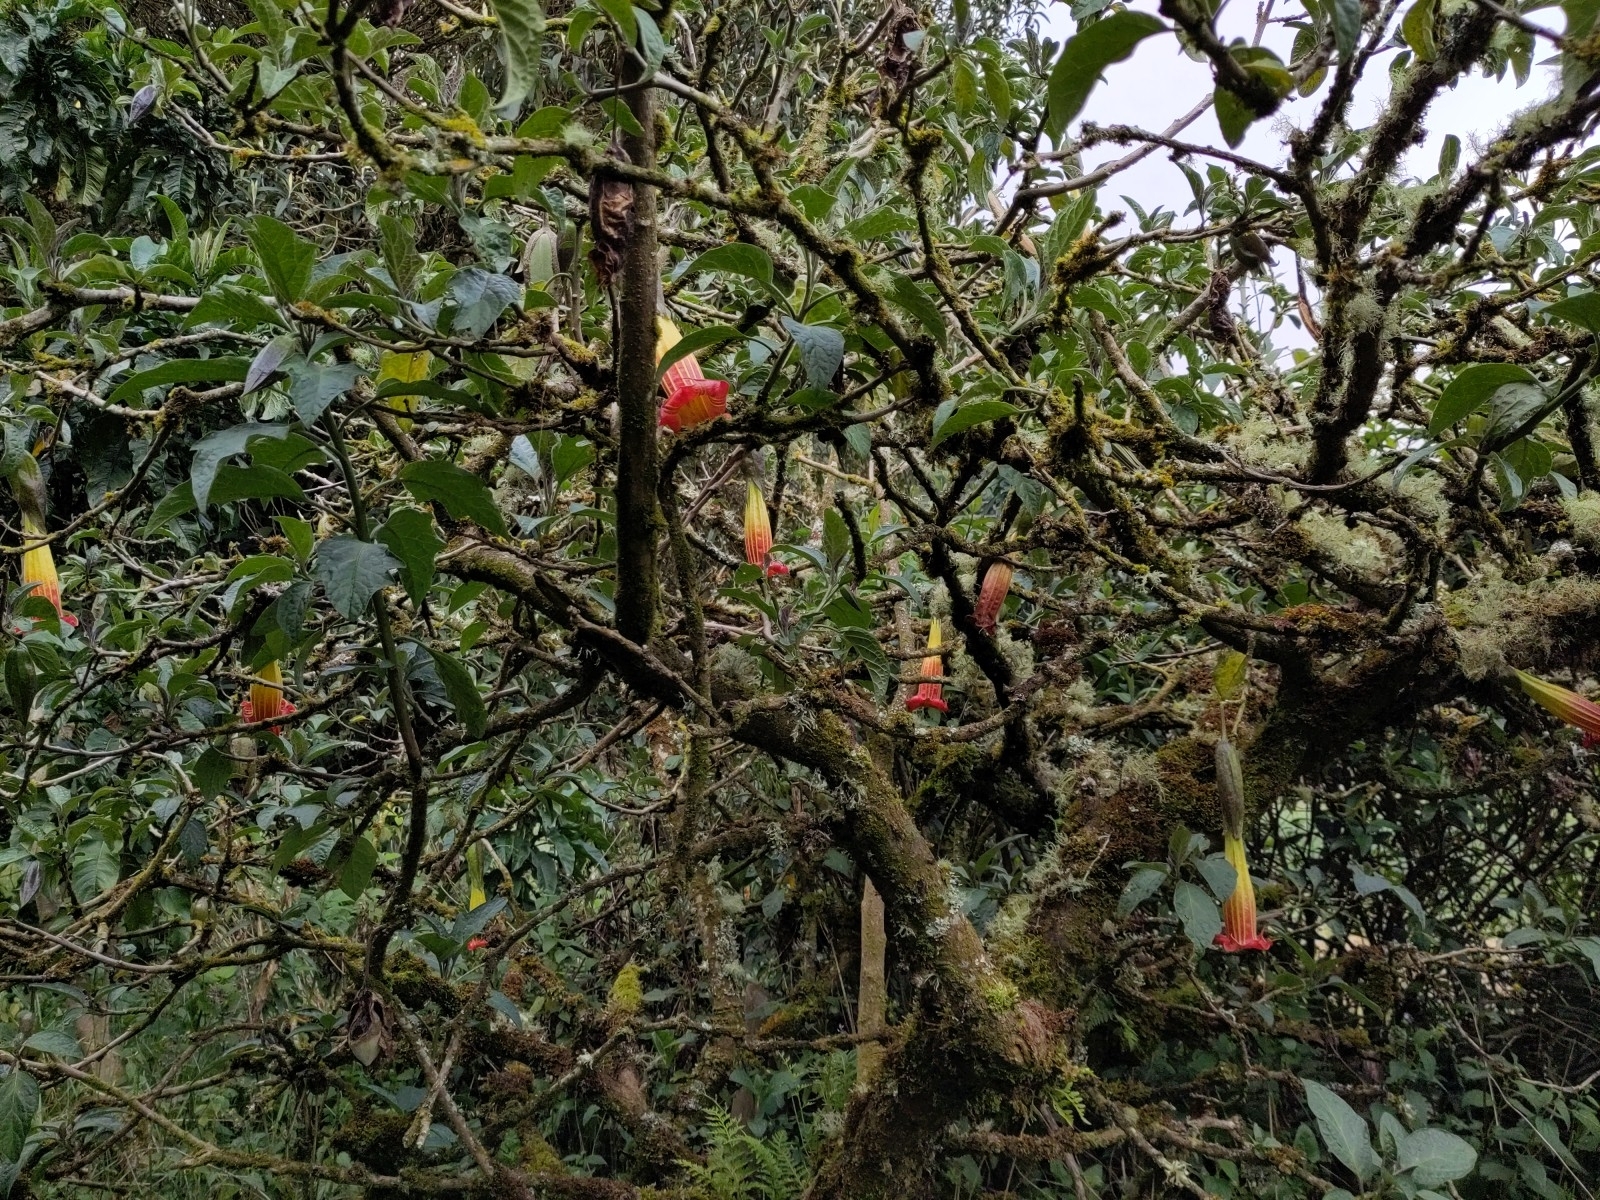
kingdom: Plantae
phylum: Tracheophyta
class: Magnoliopsida
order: Solanales
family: Solanaceae
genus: Brugmansia
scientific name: Brugmansia sanguinea
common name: Red floripontio
